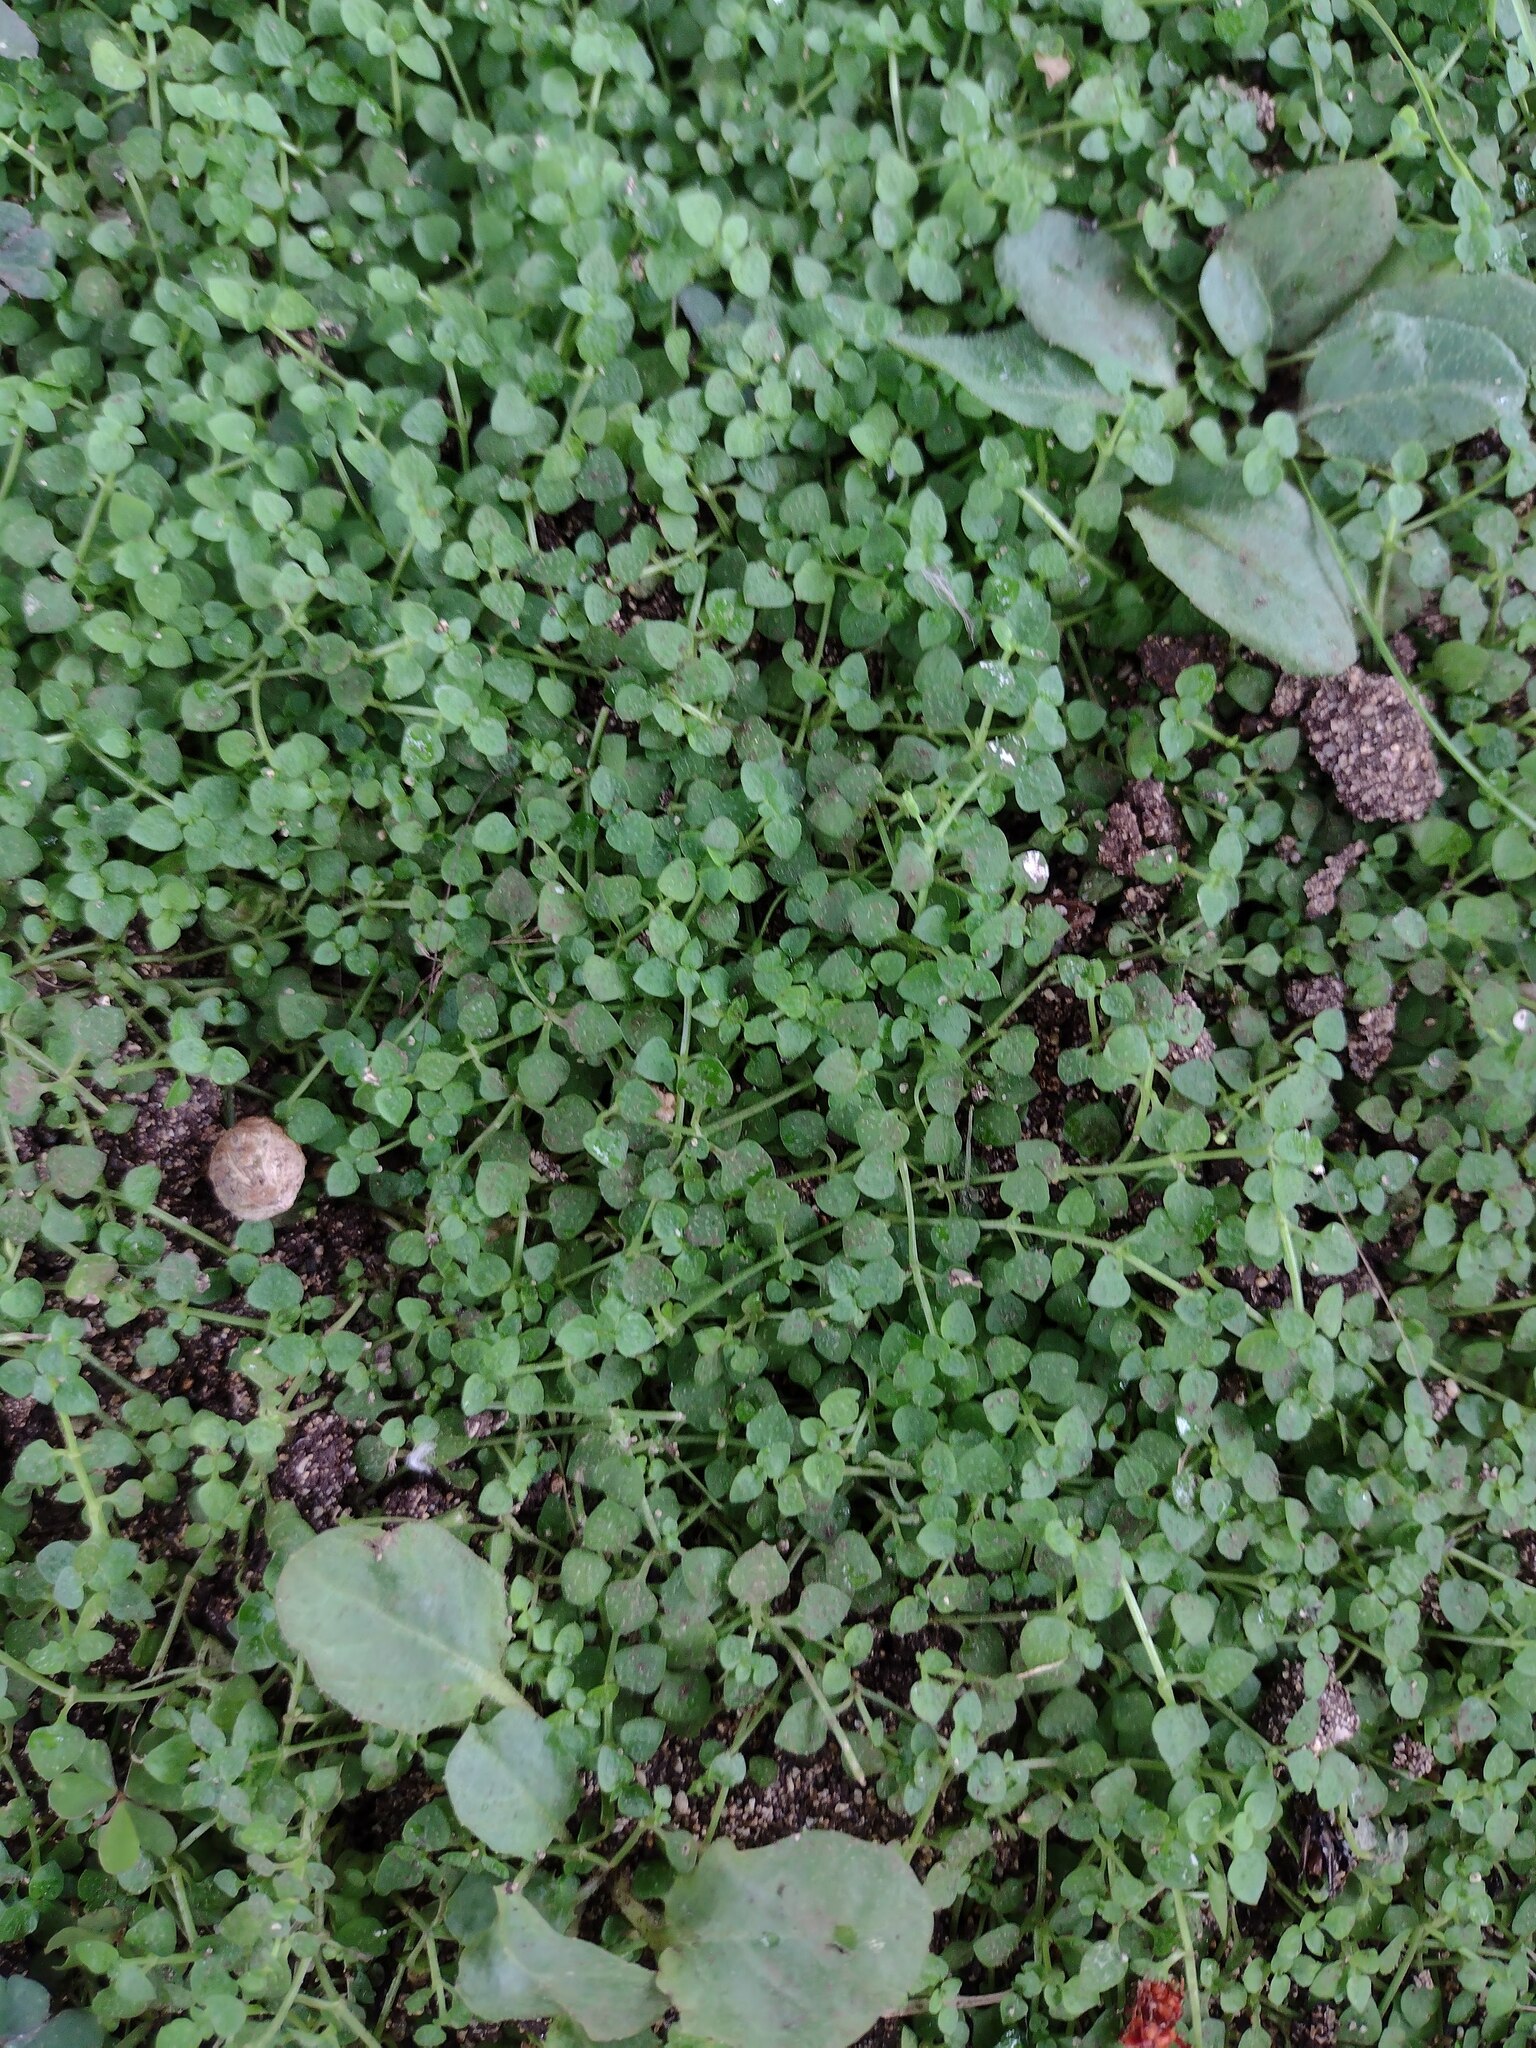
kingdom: Plantae
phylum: Tracheophyta
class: Magnoliopsida
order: Gentianales
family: Rubiaceae
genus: Oldenlandiopsis
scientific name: Oldenlandiopsis callitrichoides
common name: Creeping-bluet
